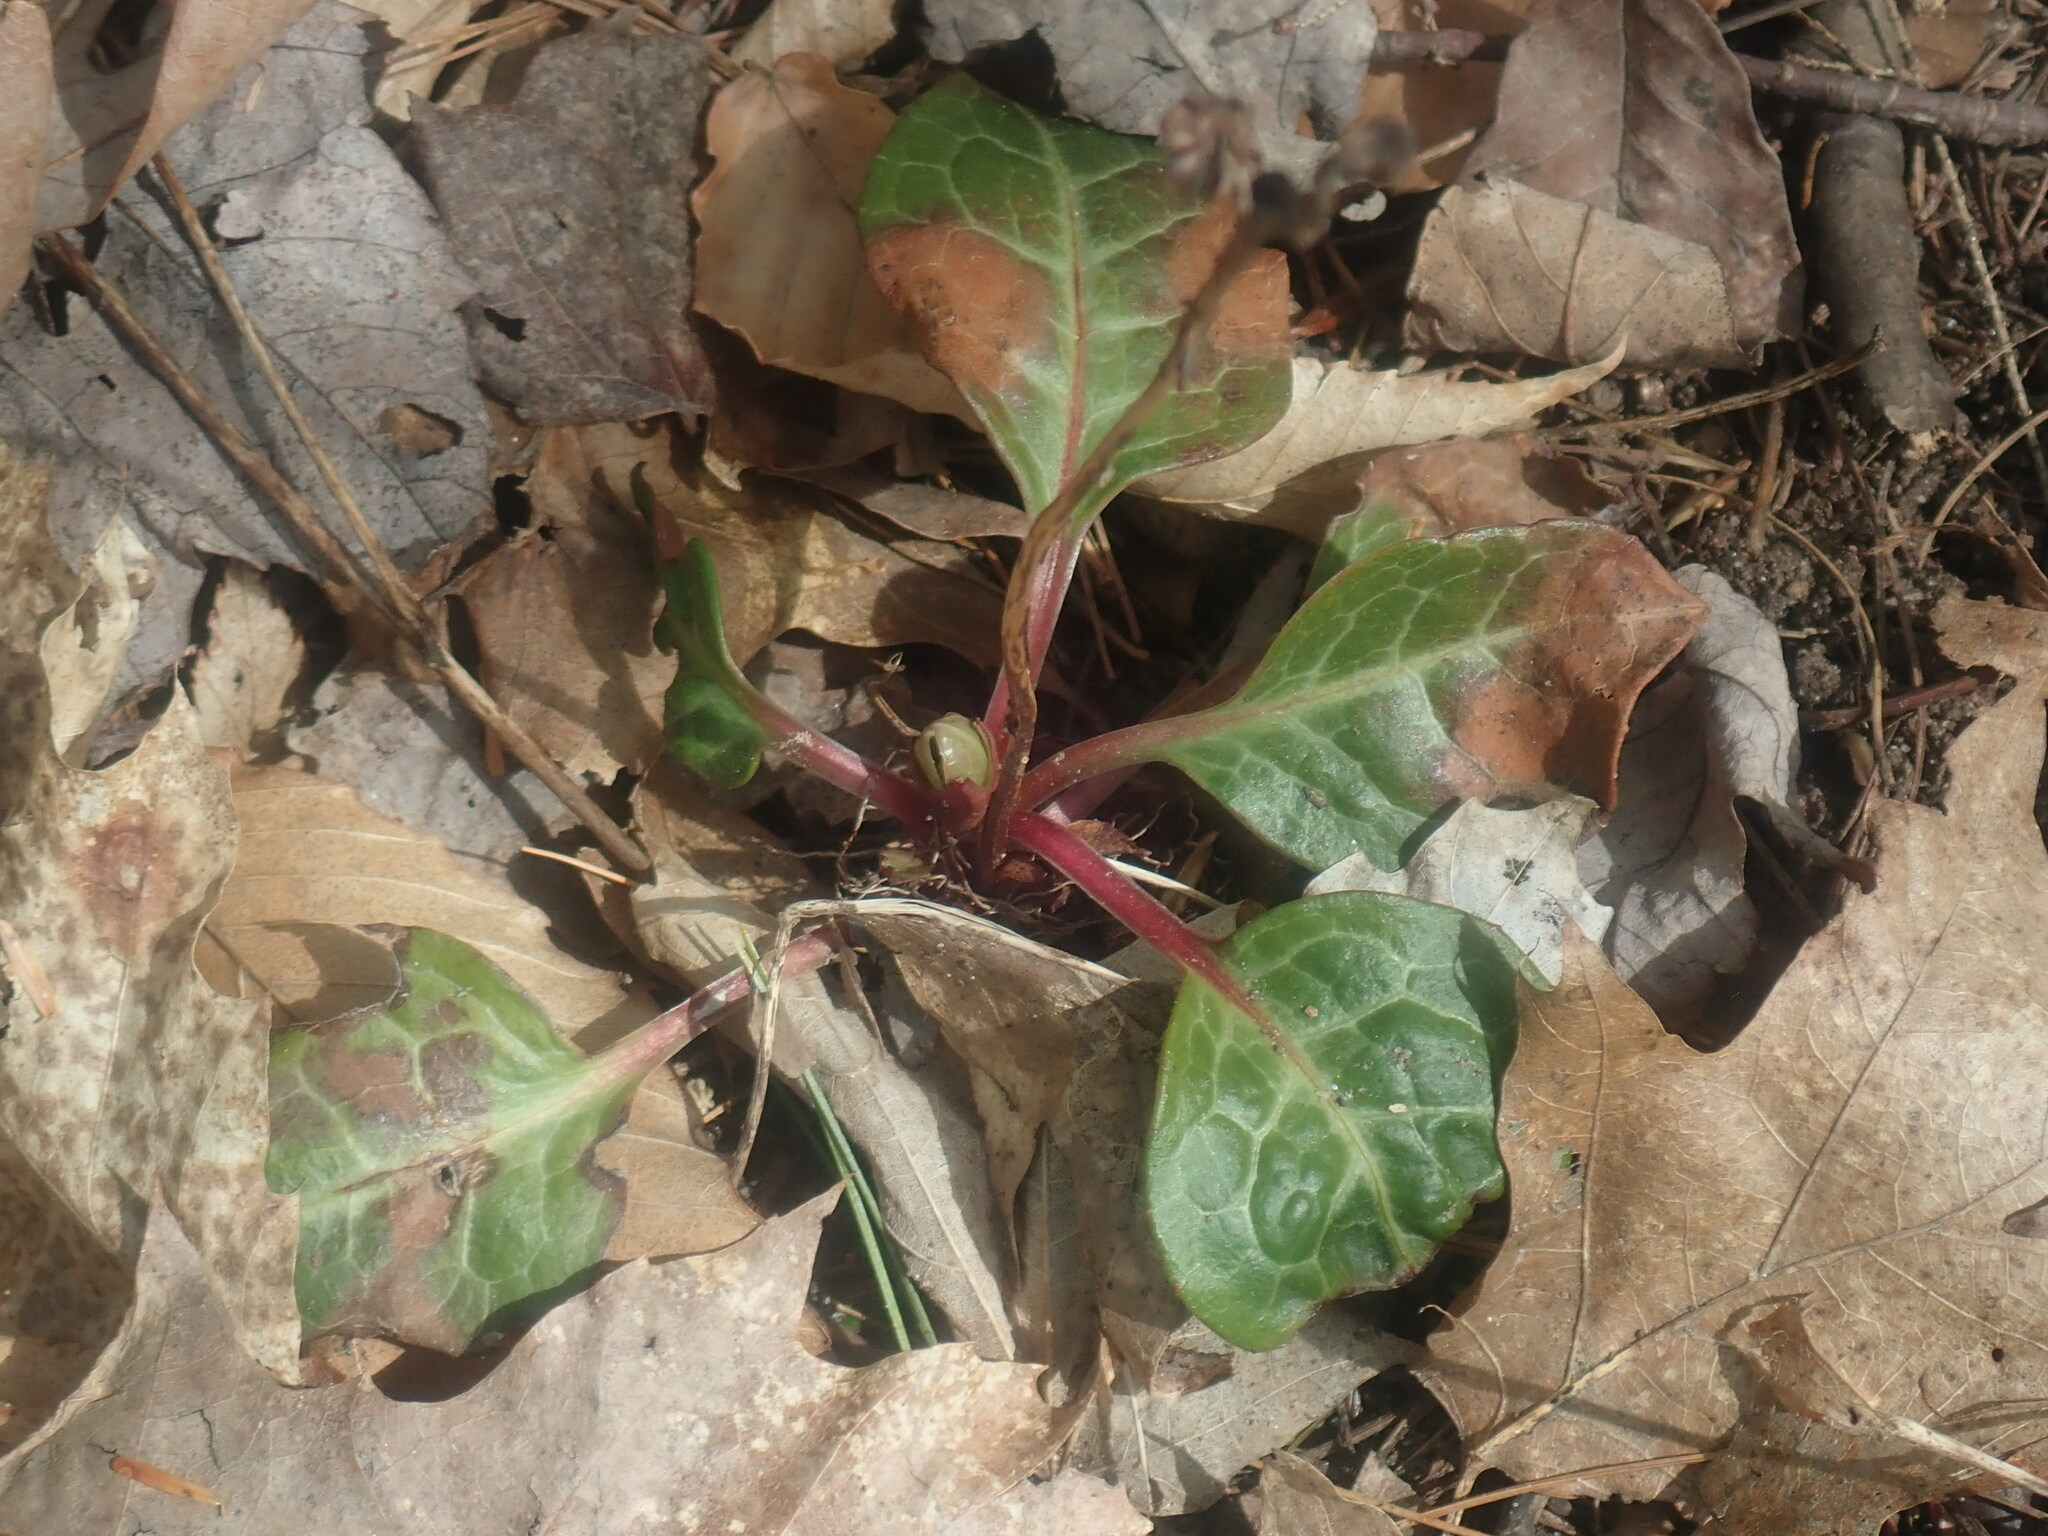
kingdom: Plantae
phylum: Tracheophyta
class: Magnoliopsida
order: Ericales
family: Ericaceae
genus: Pyrola
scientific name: Pyrola americana
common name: American wintergreen
